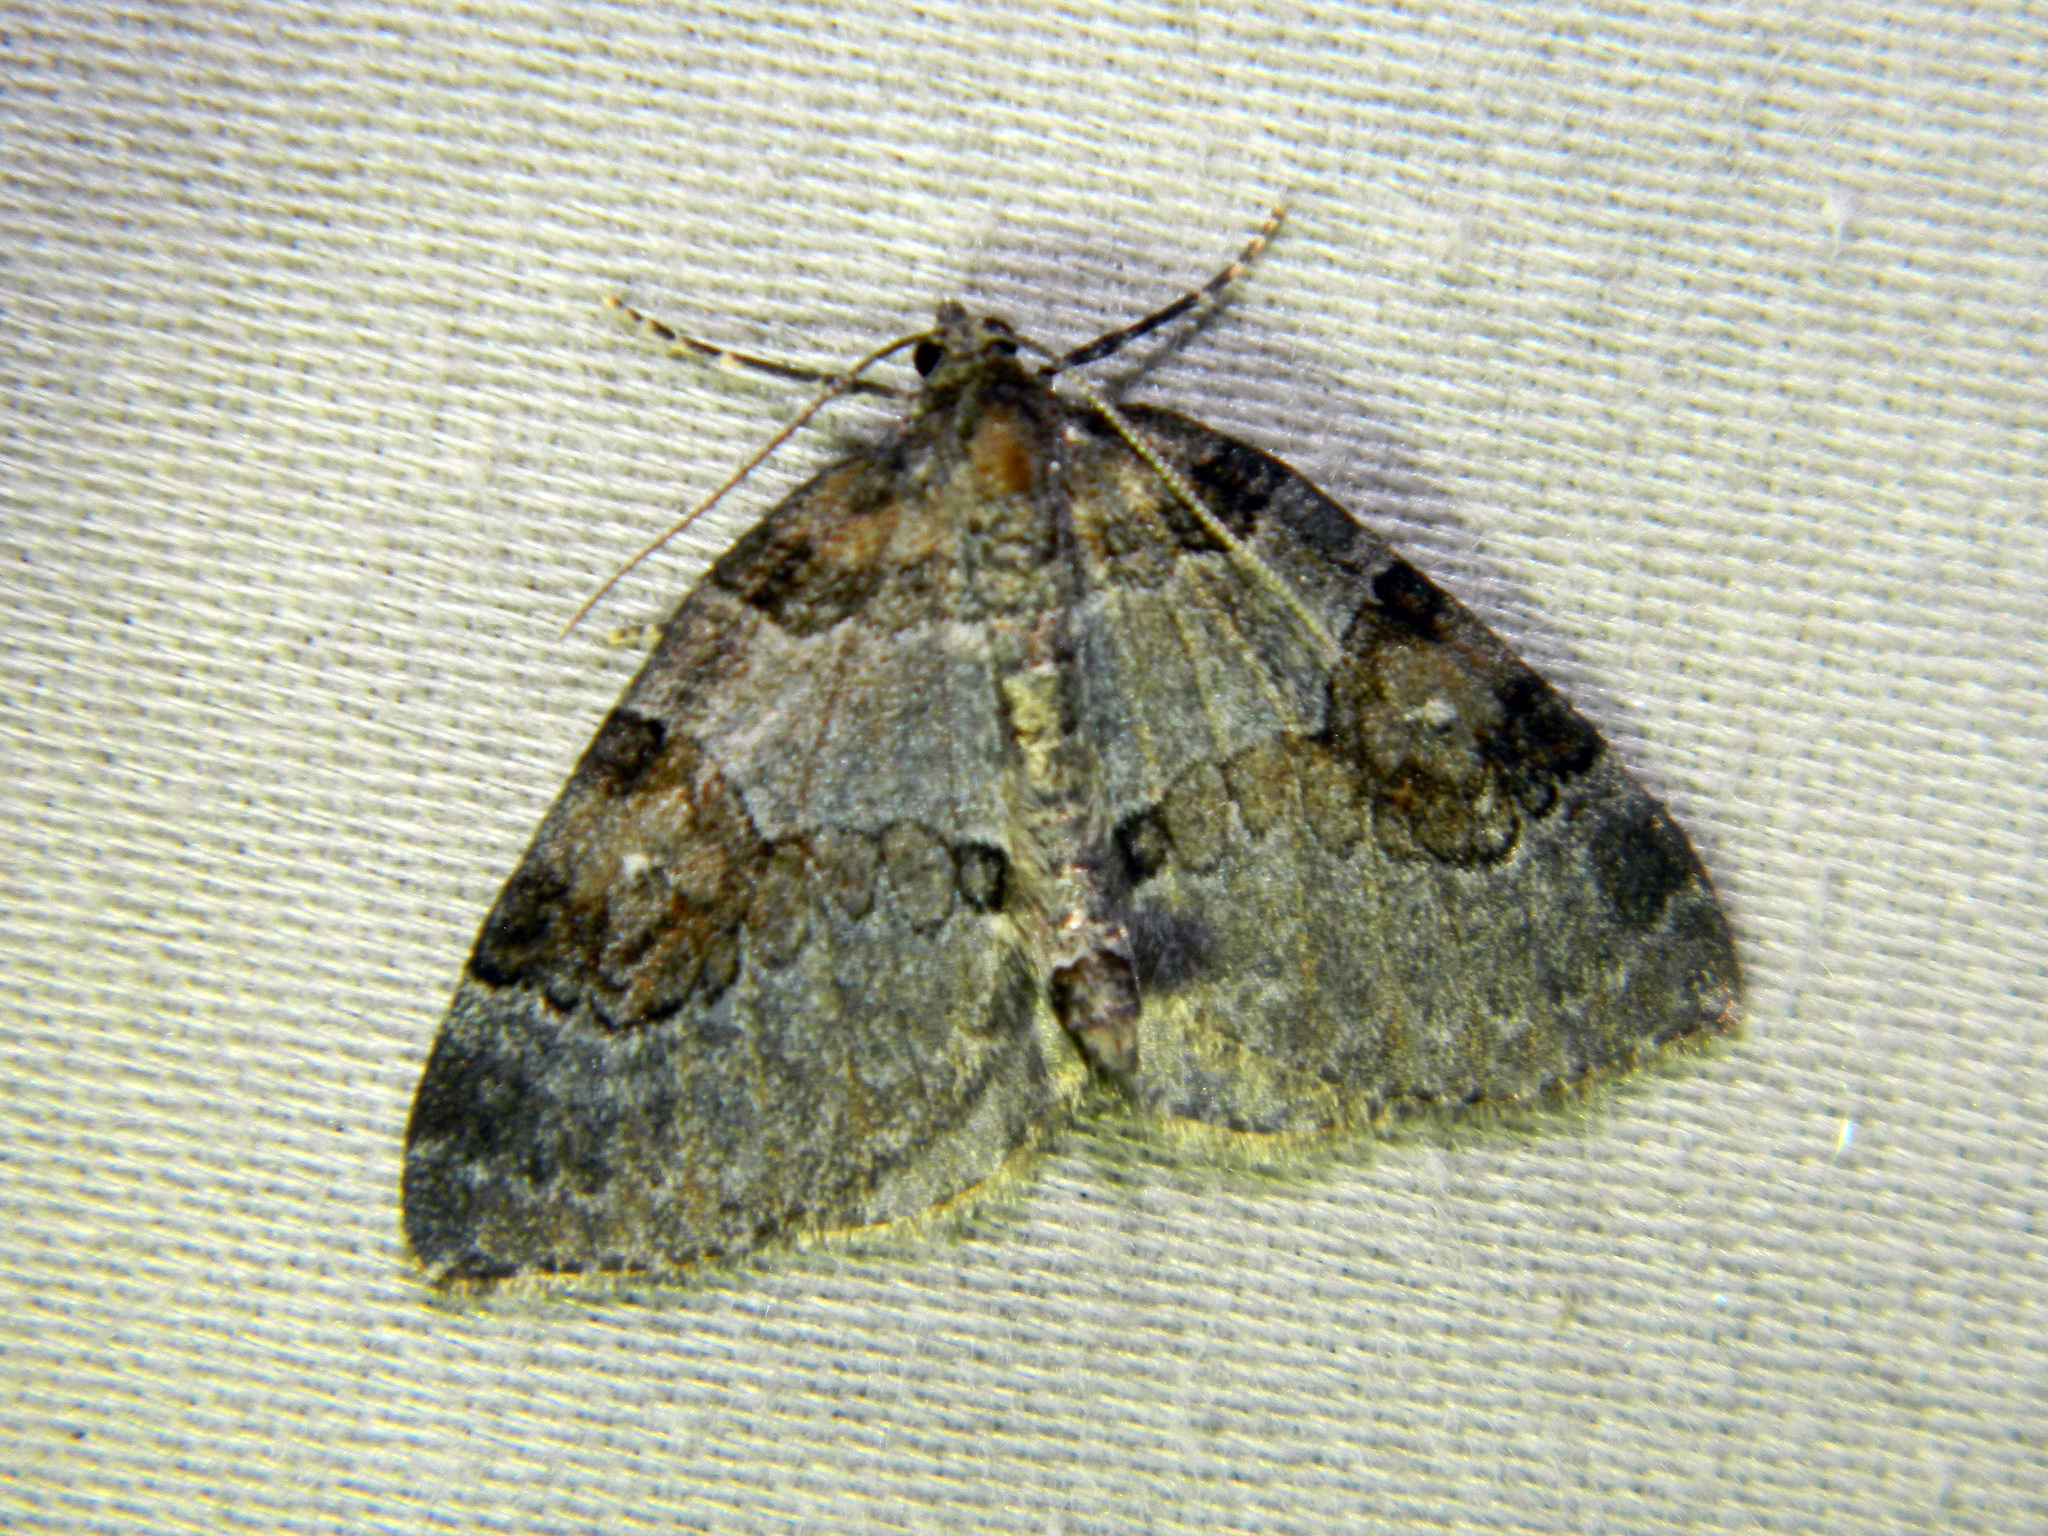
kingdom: Animalia
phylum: Arthropoda
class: Insecta
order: Lepidoptera
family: Geometridae
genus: Plemyria
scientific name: Plemyria georgii
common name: George's carpet moth
